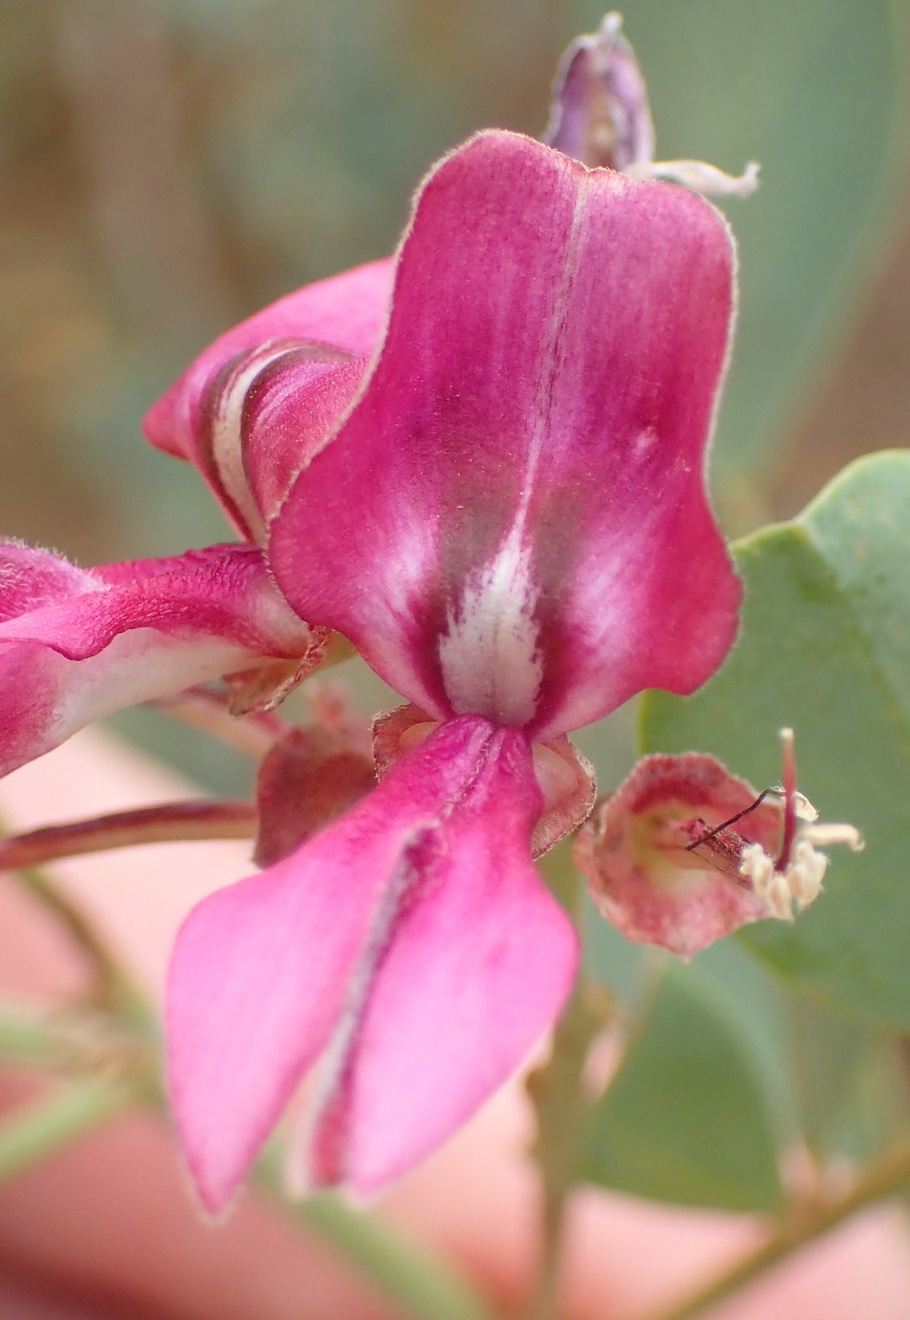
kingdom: Plantae
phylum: Tracheophyta
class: Magnoliopsida
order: Fabales
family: Fabaceae
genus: Indigofera
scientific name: Indigofera frutescens
